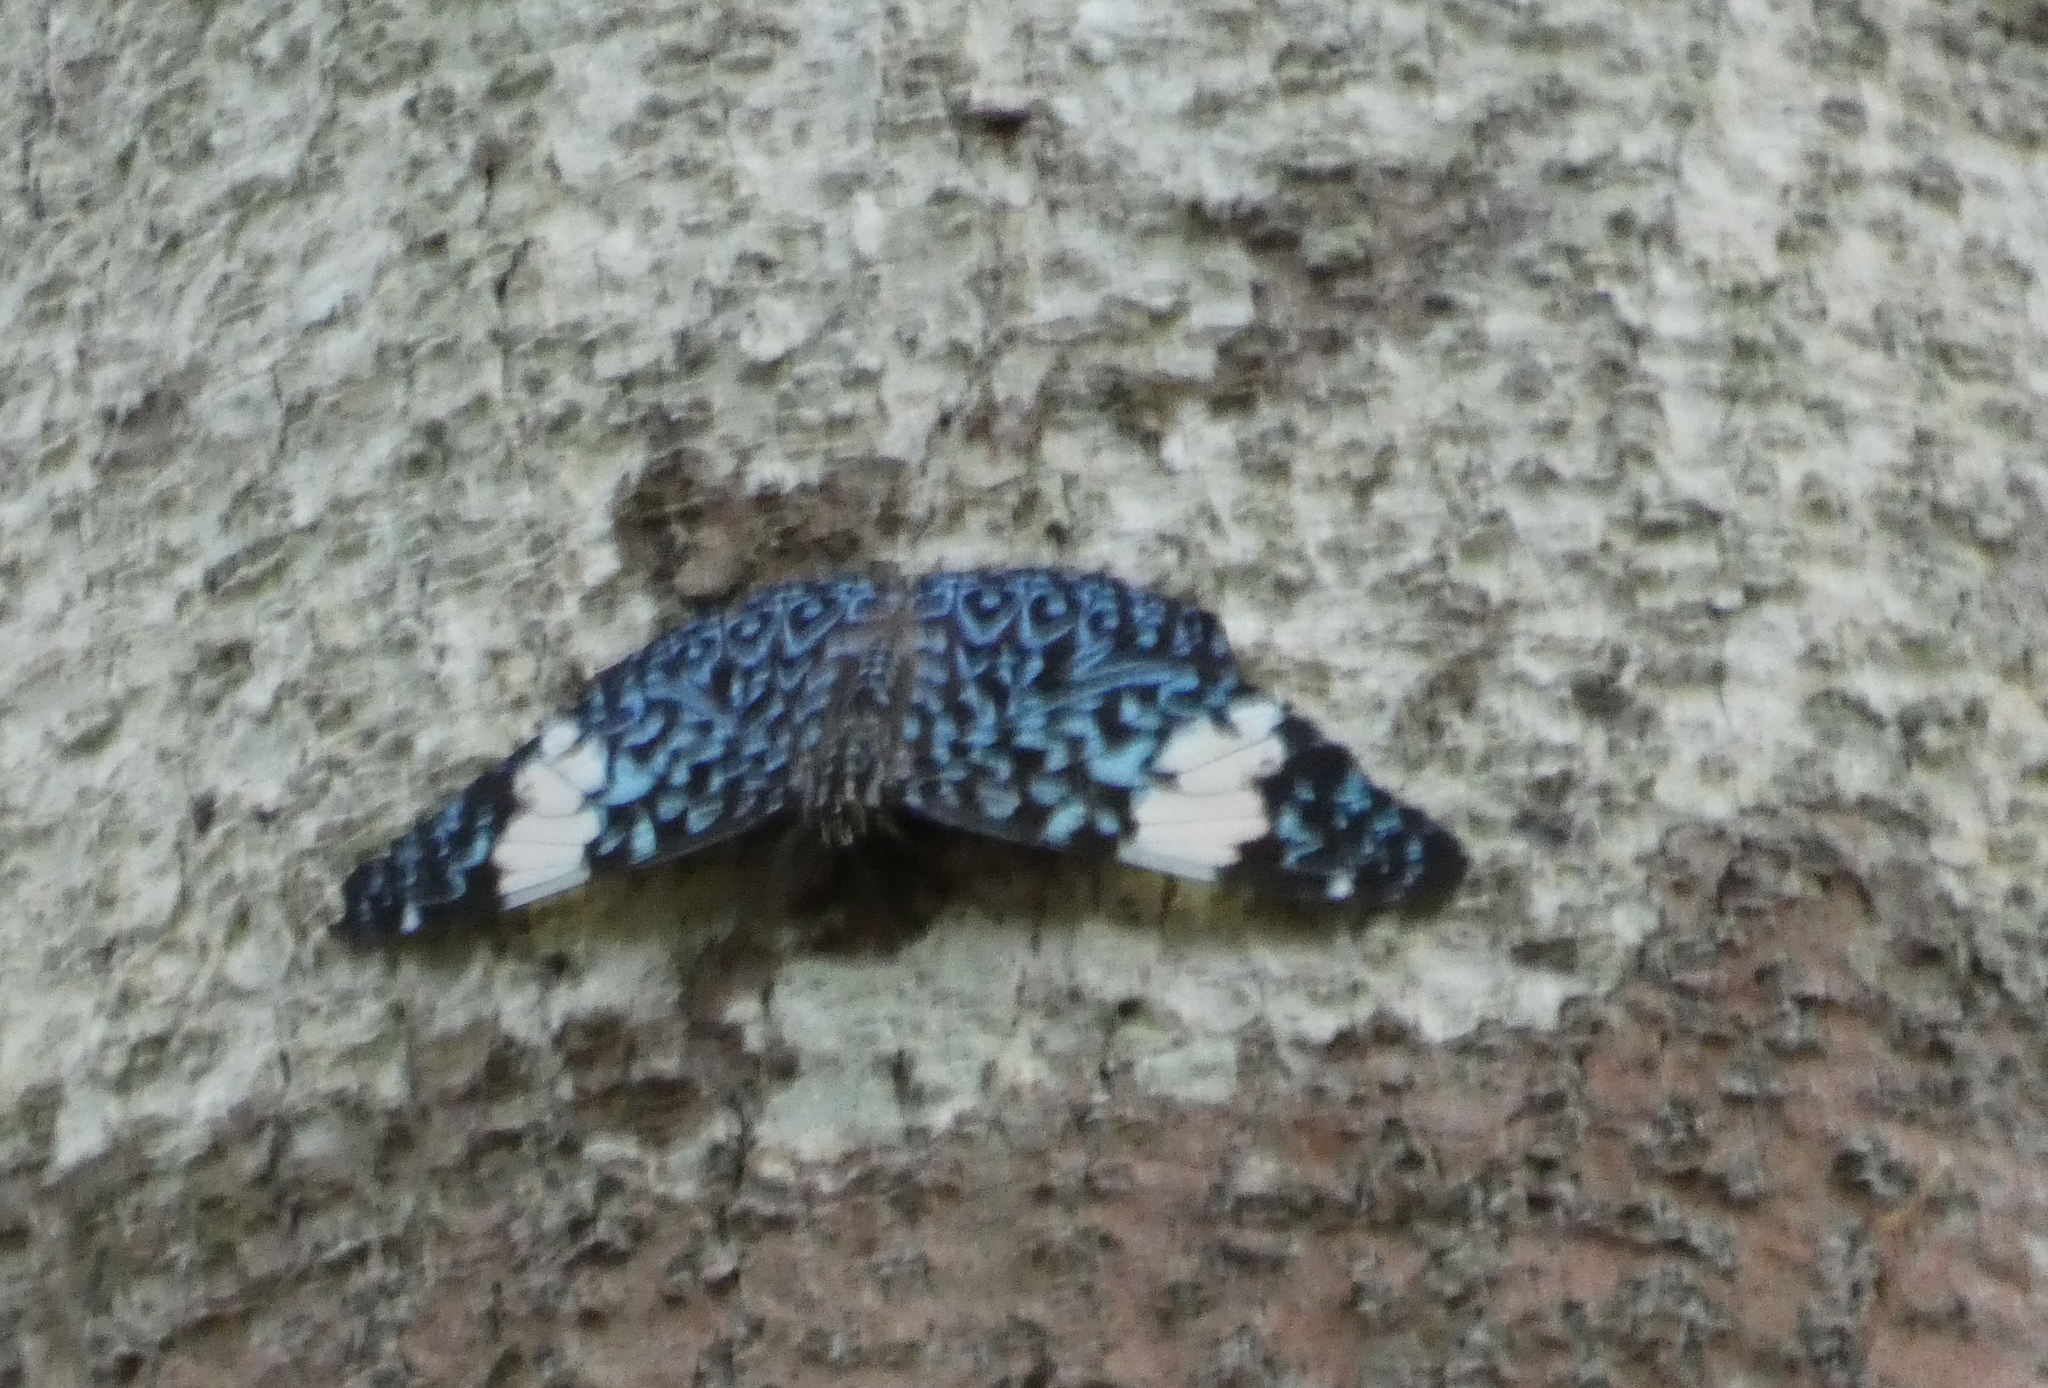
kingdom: Animalia
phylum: Arthropoda
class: Insecta
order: Lepidoptera
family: Nymphalidae
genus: Hamadryas
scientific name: Hamadryas amphinome
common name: Red cracker
